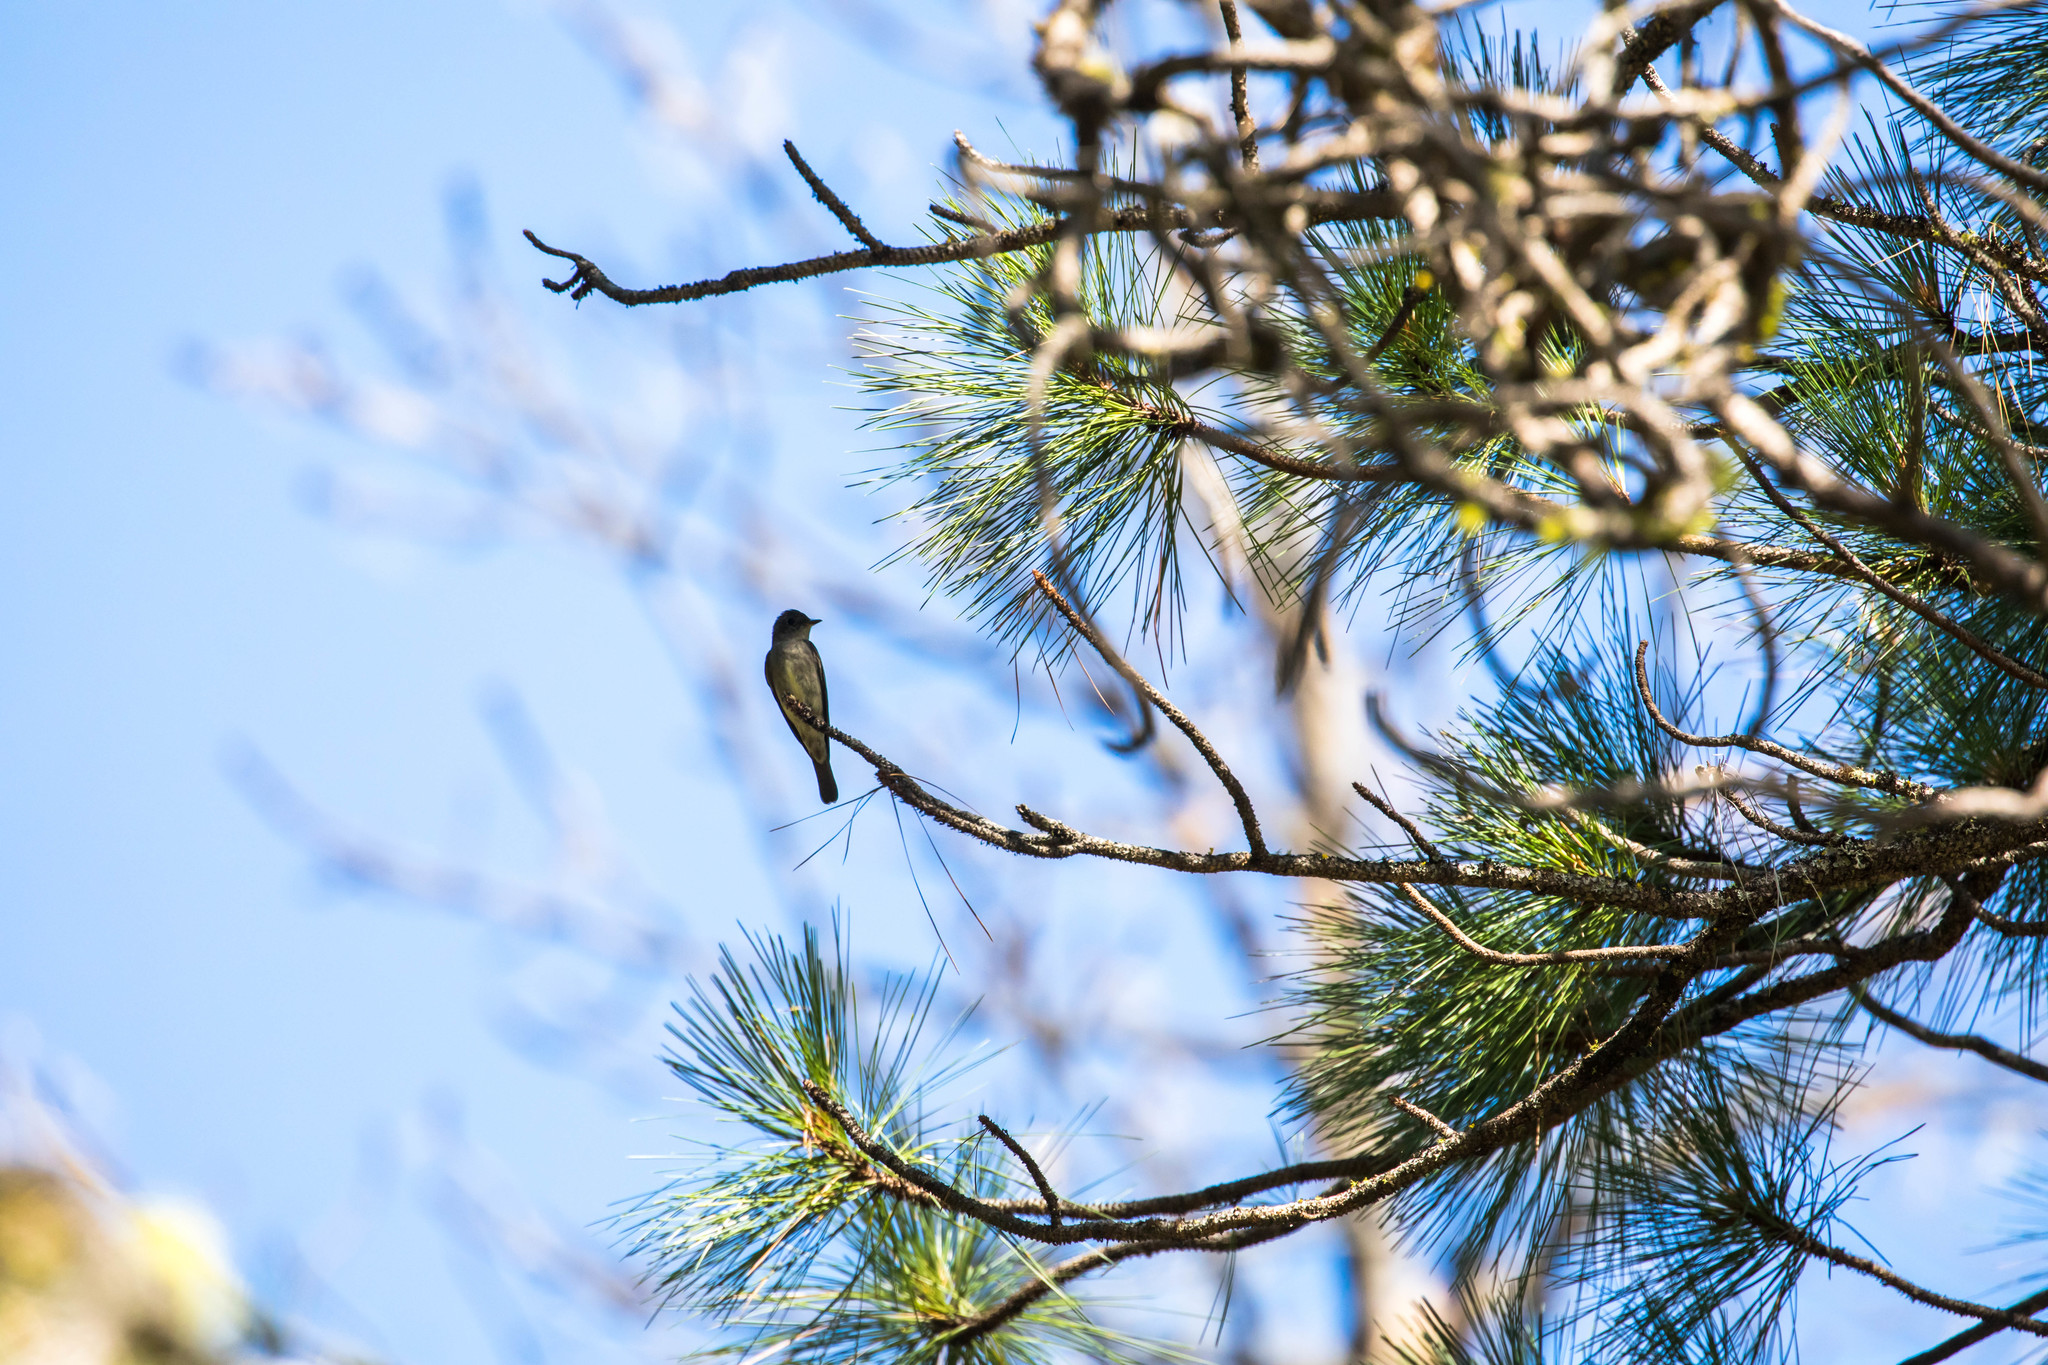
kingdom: Animalia
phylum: Chordata
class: Aves
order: Passeriformes
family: Tyrannidae
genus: Contopus
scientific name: Contopus sordidulus
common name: Western wood-pewee
